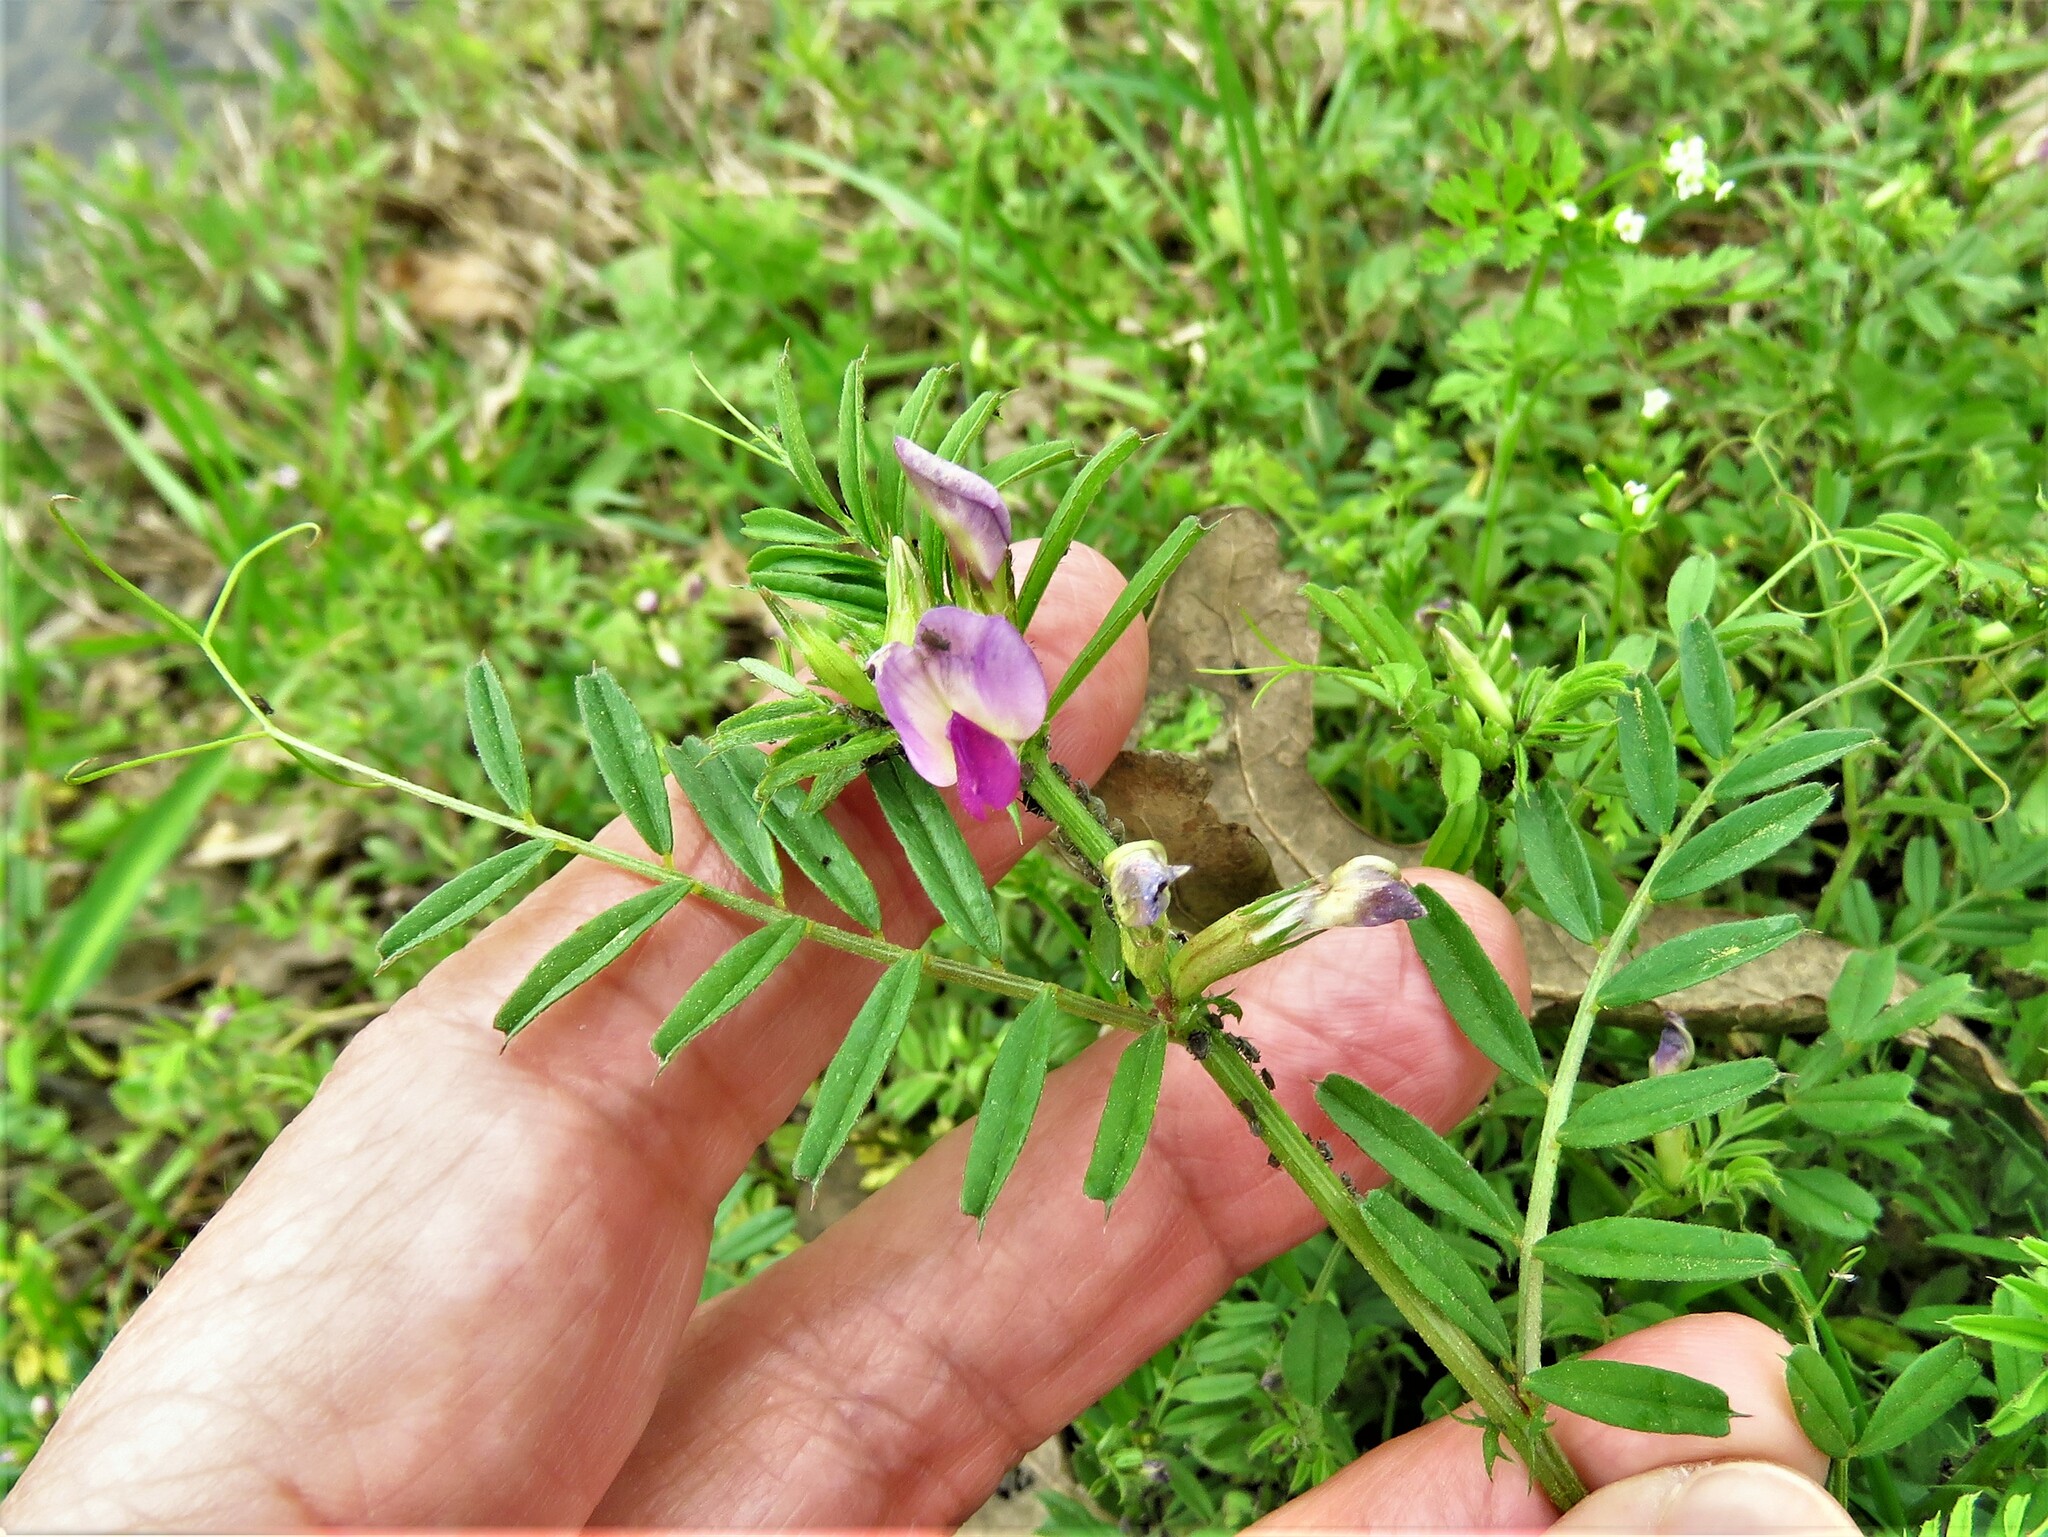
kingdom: Plantae
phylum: Tracheophyta
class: Magnoliopsida
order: Fabales
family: Fabaceae
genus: Vicia
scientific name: Vicia sativa
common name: Garden vetch
